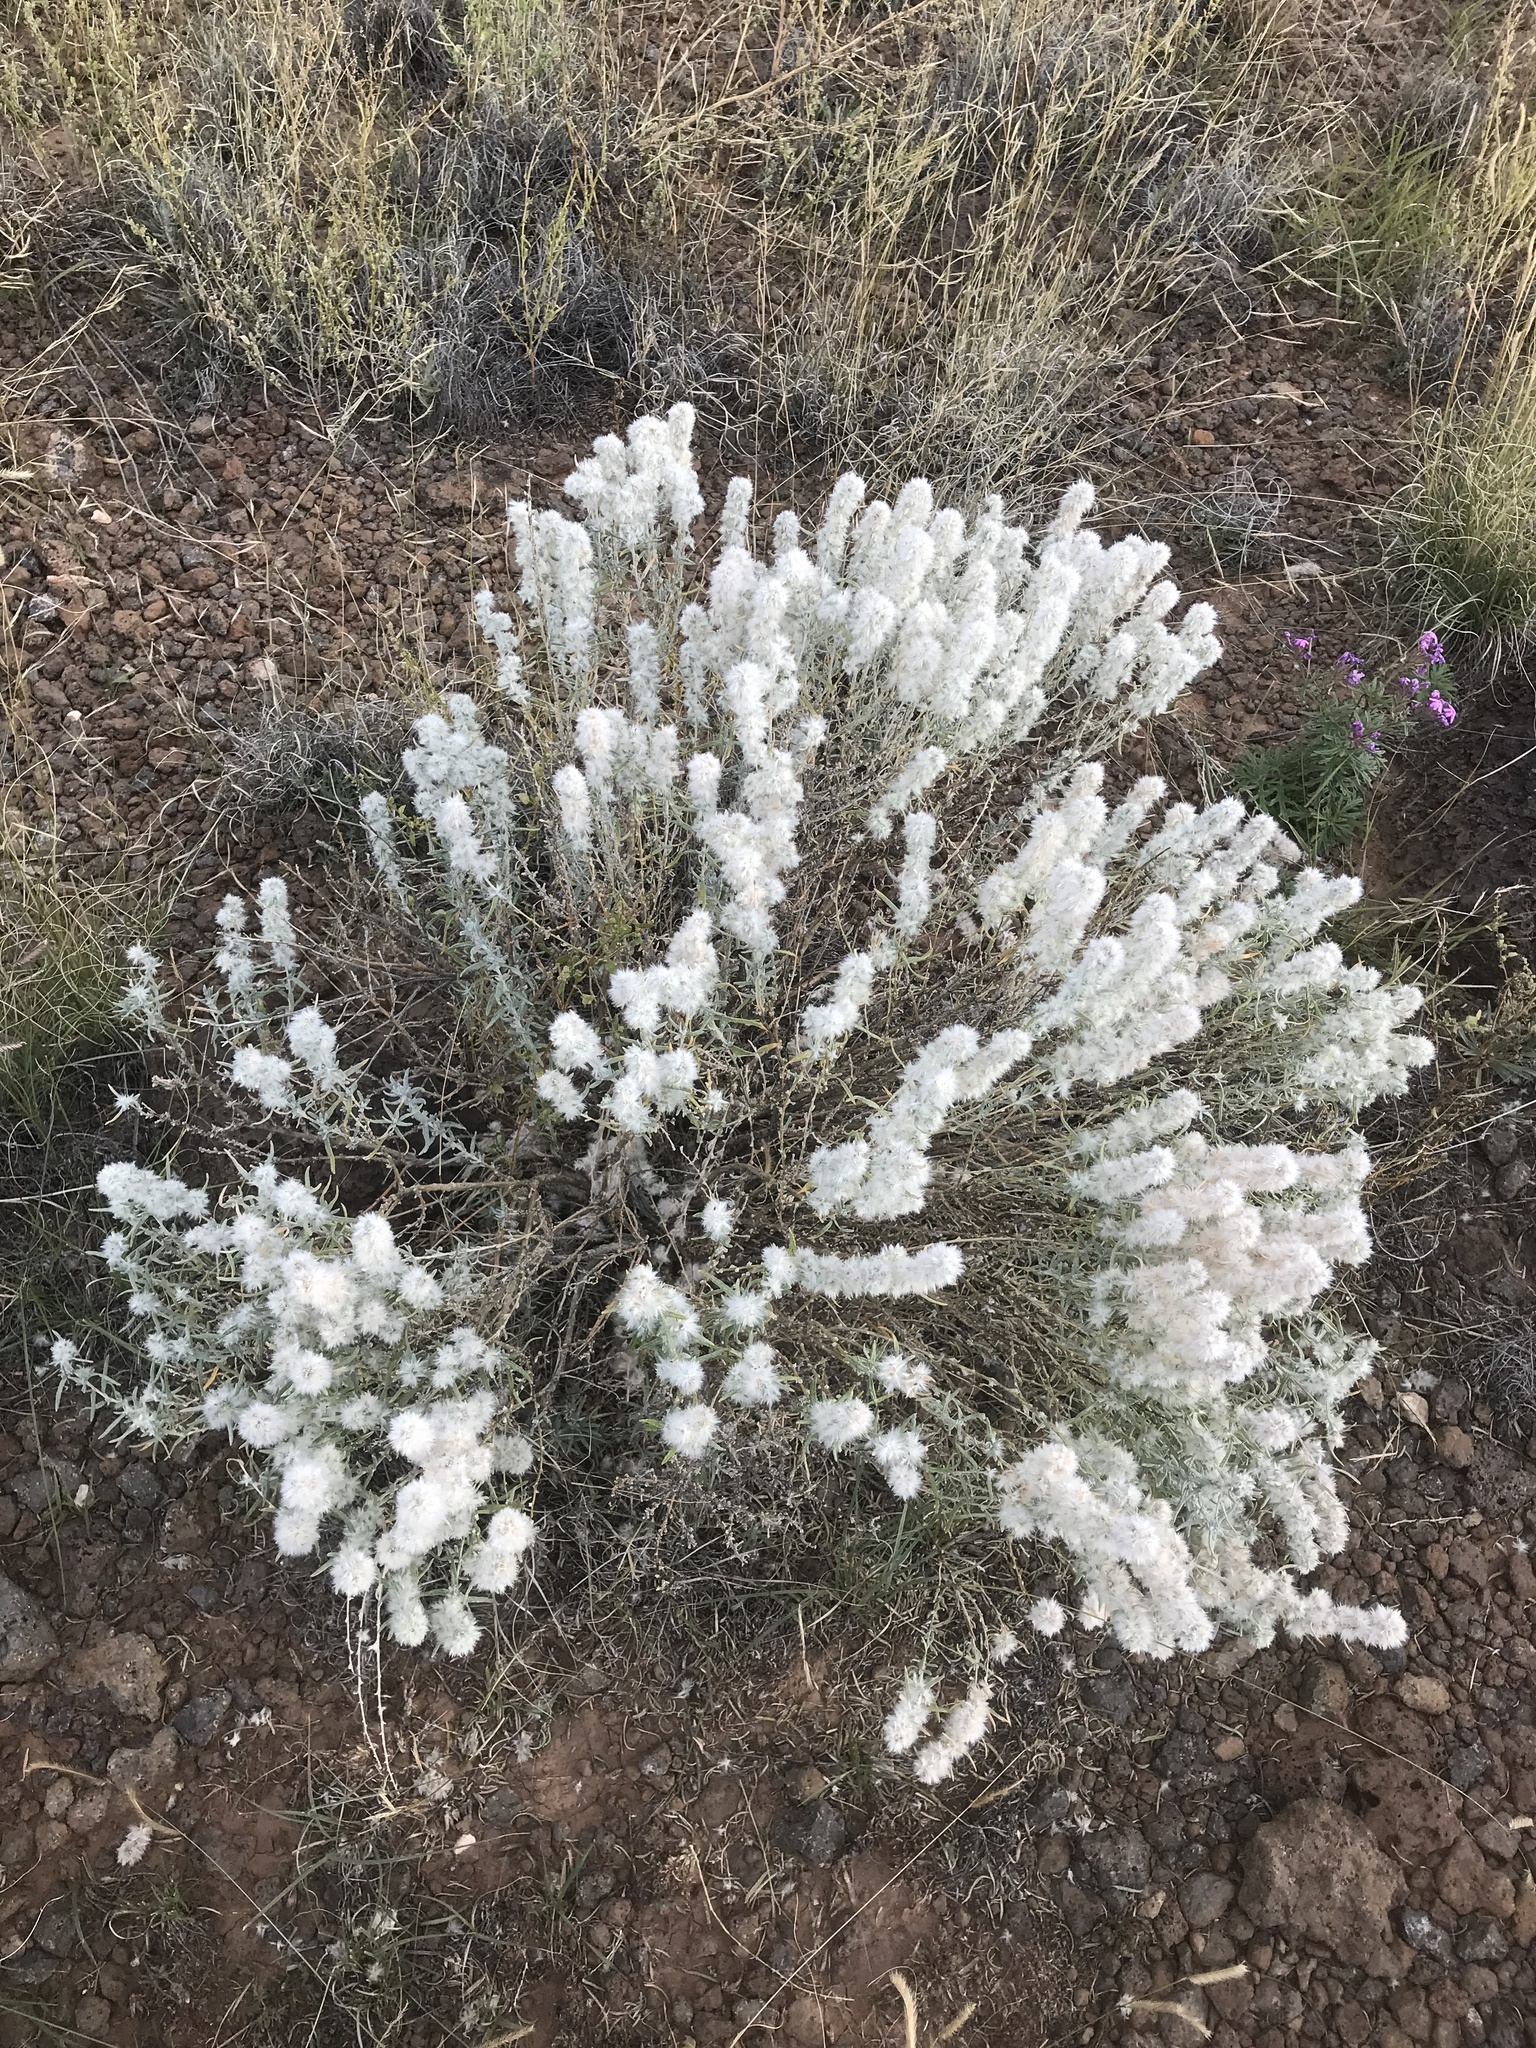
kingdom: Plantae
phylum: Tracheophyta
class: Magnoliopsida
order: Caryophyllales
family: Amaranthaceae
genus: Krascheninnikovia
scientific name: Krascheninnikovia lanata
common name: Winterfat
